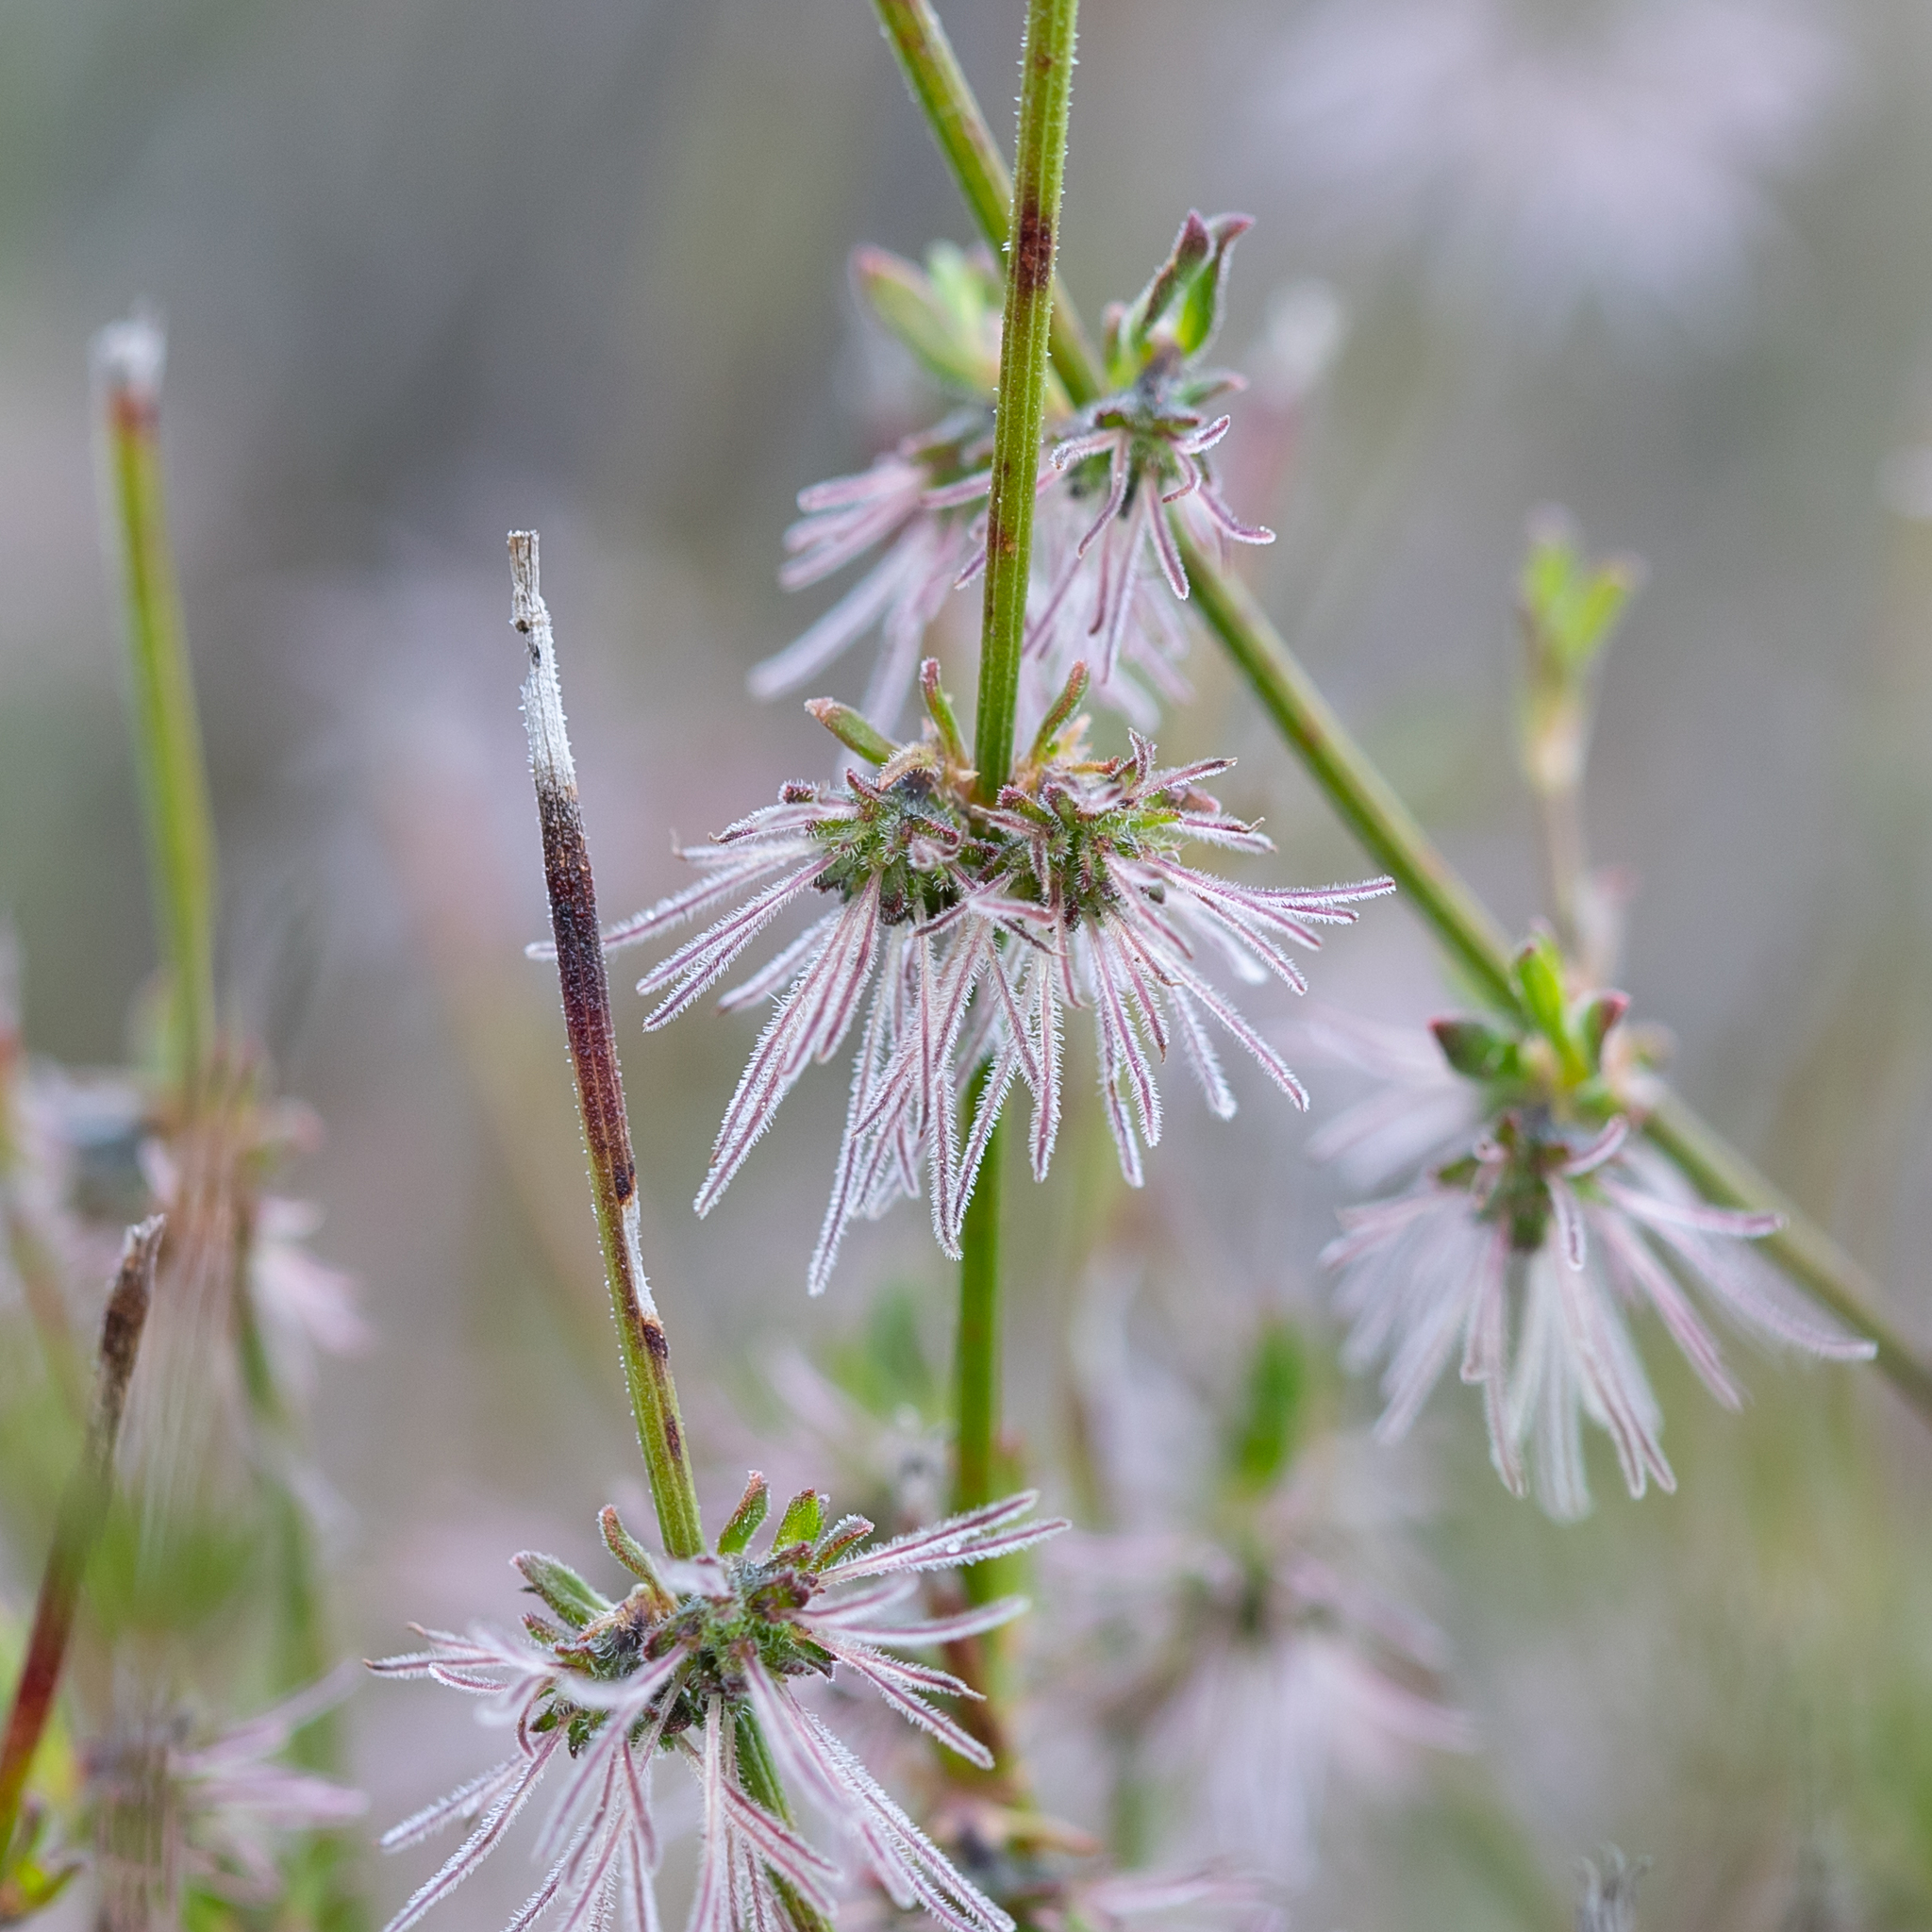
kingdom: Plantae
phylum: Tracheophyta
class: Magnoliopsida
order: Gentianales
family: Rubiaceae
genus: Opercularia
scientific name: Opercularia turpis
